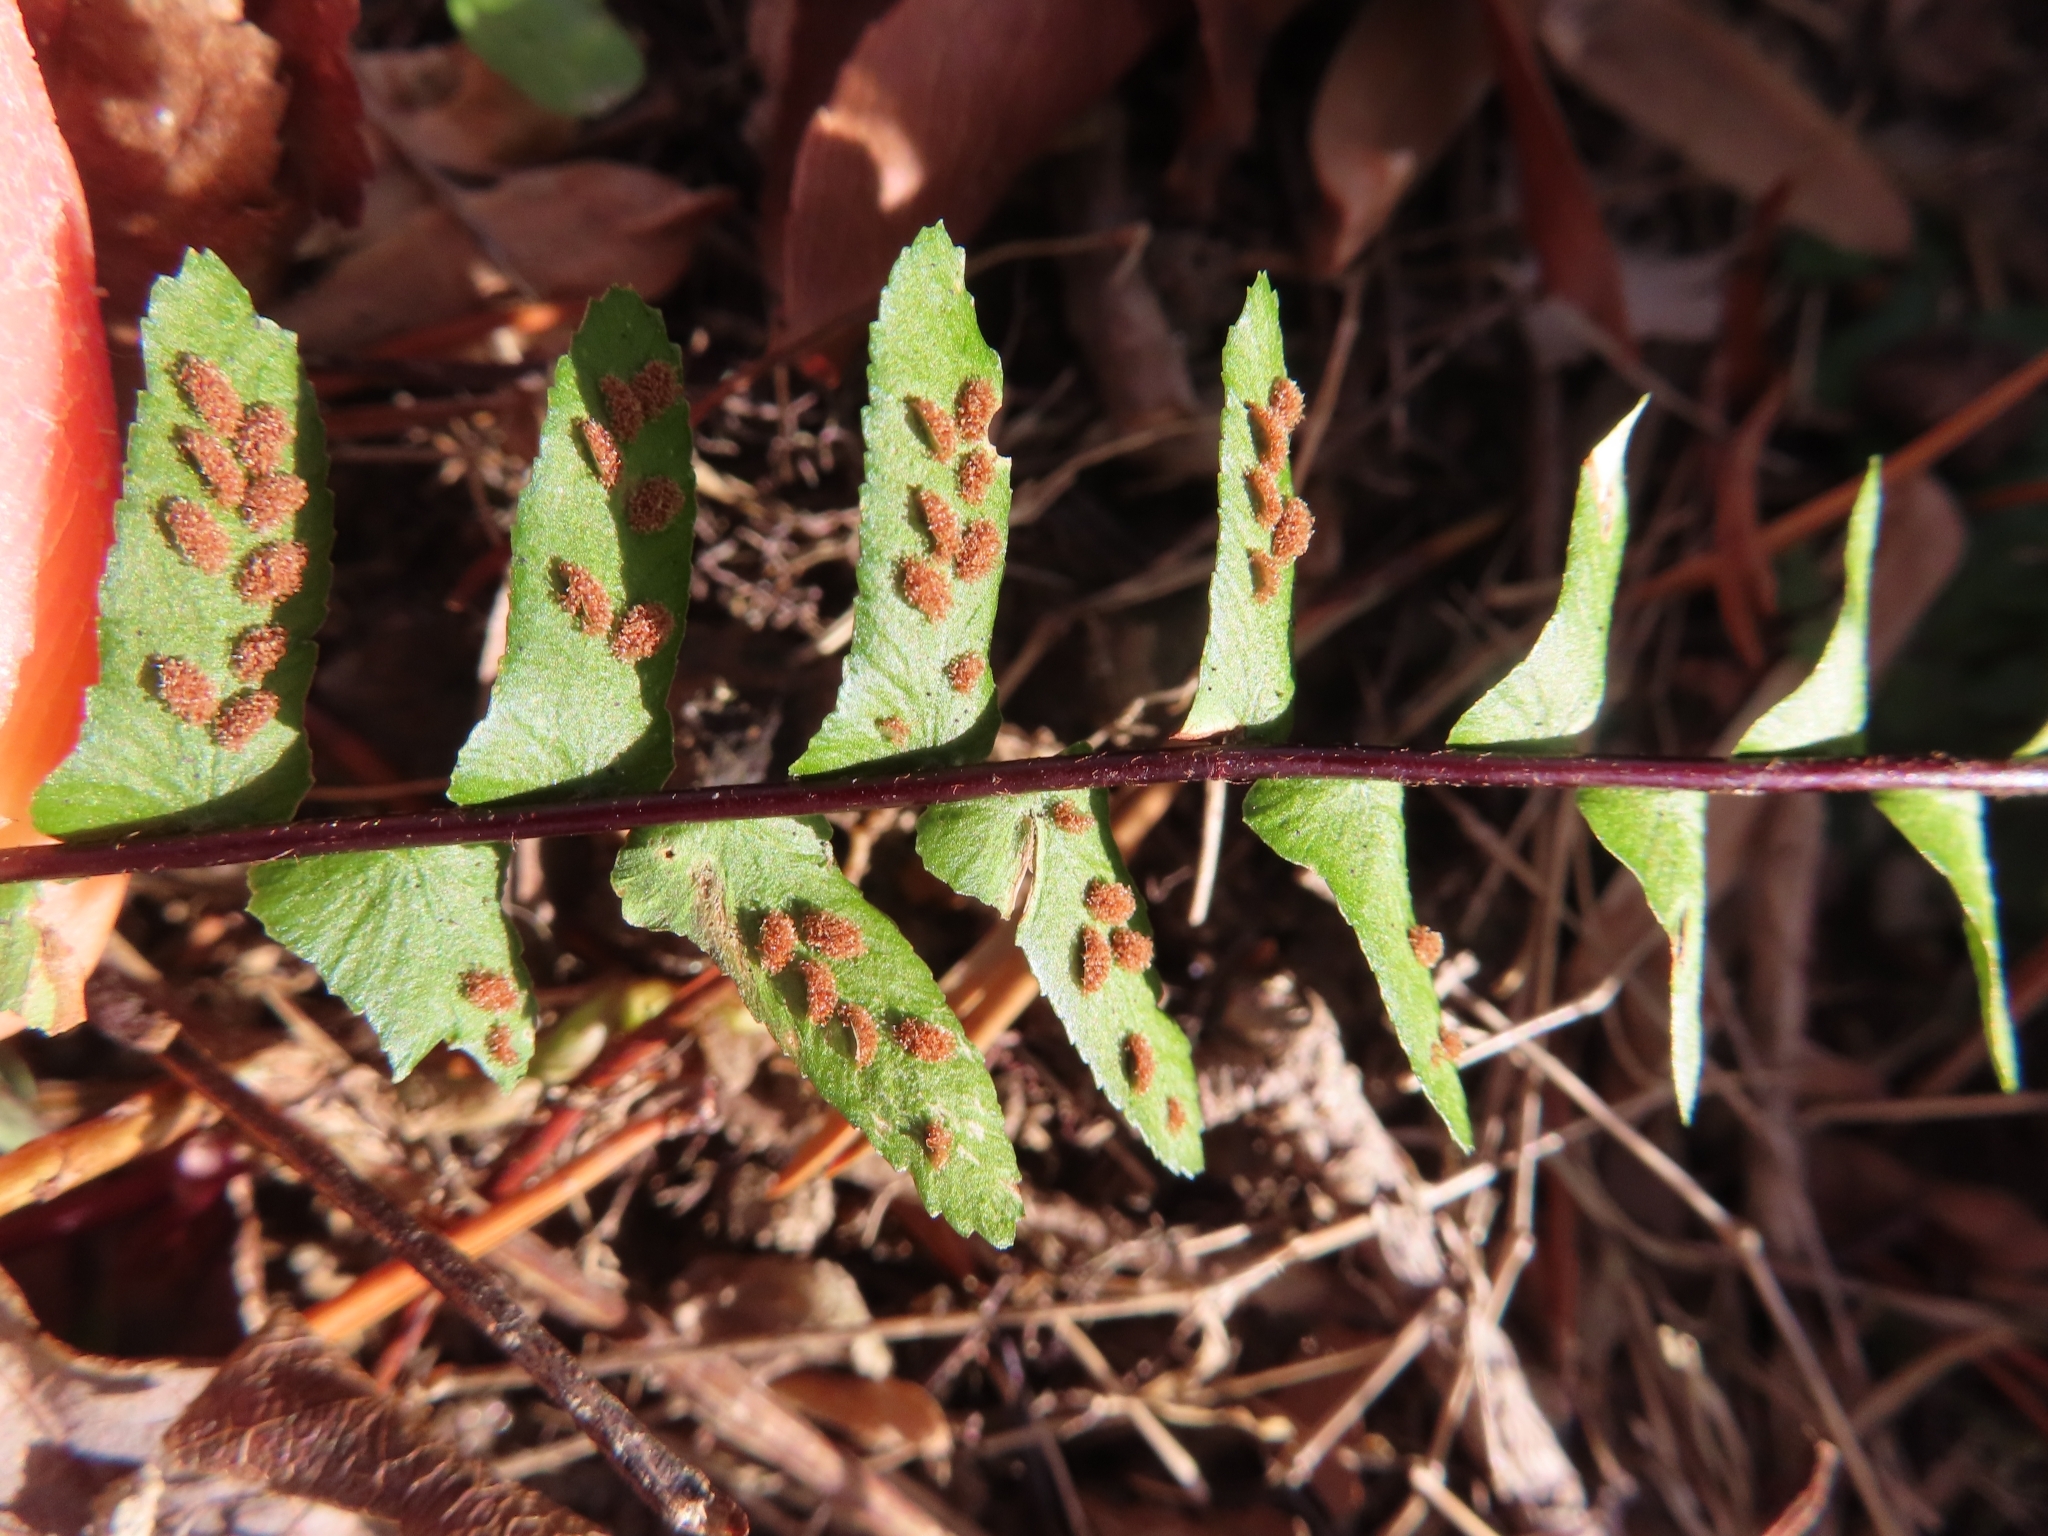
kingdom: Plantae
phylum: Tracheophyta
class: Polypodiopsida
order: Polypodiales
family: Aspleniaceae
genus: Asplenium
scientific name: Asplenium platyneuron
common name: Ebony spleenwort
